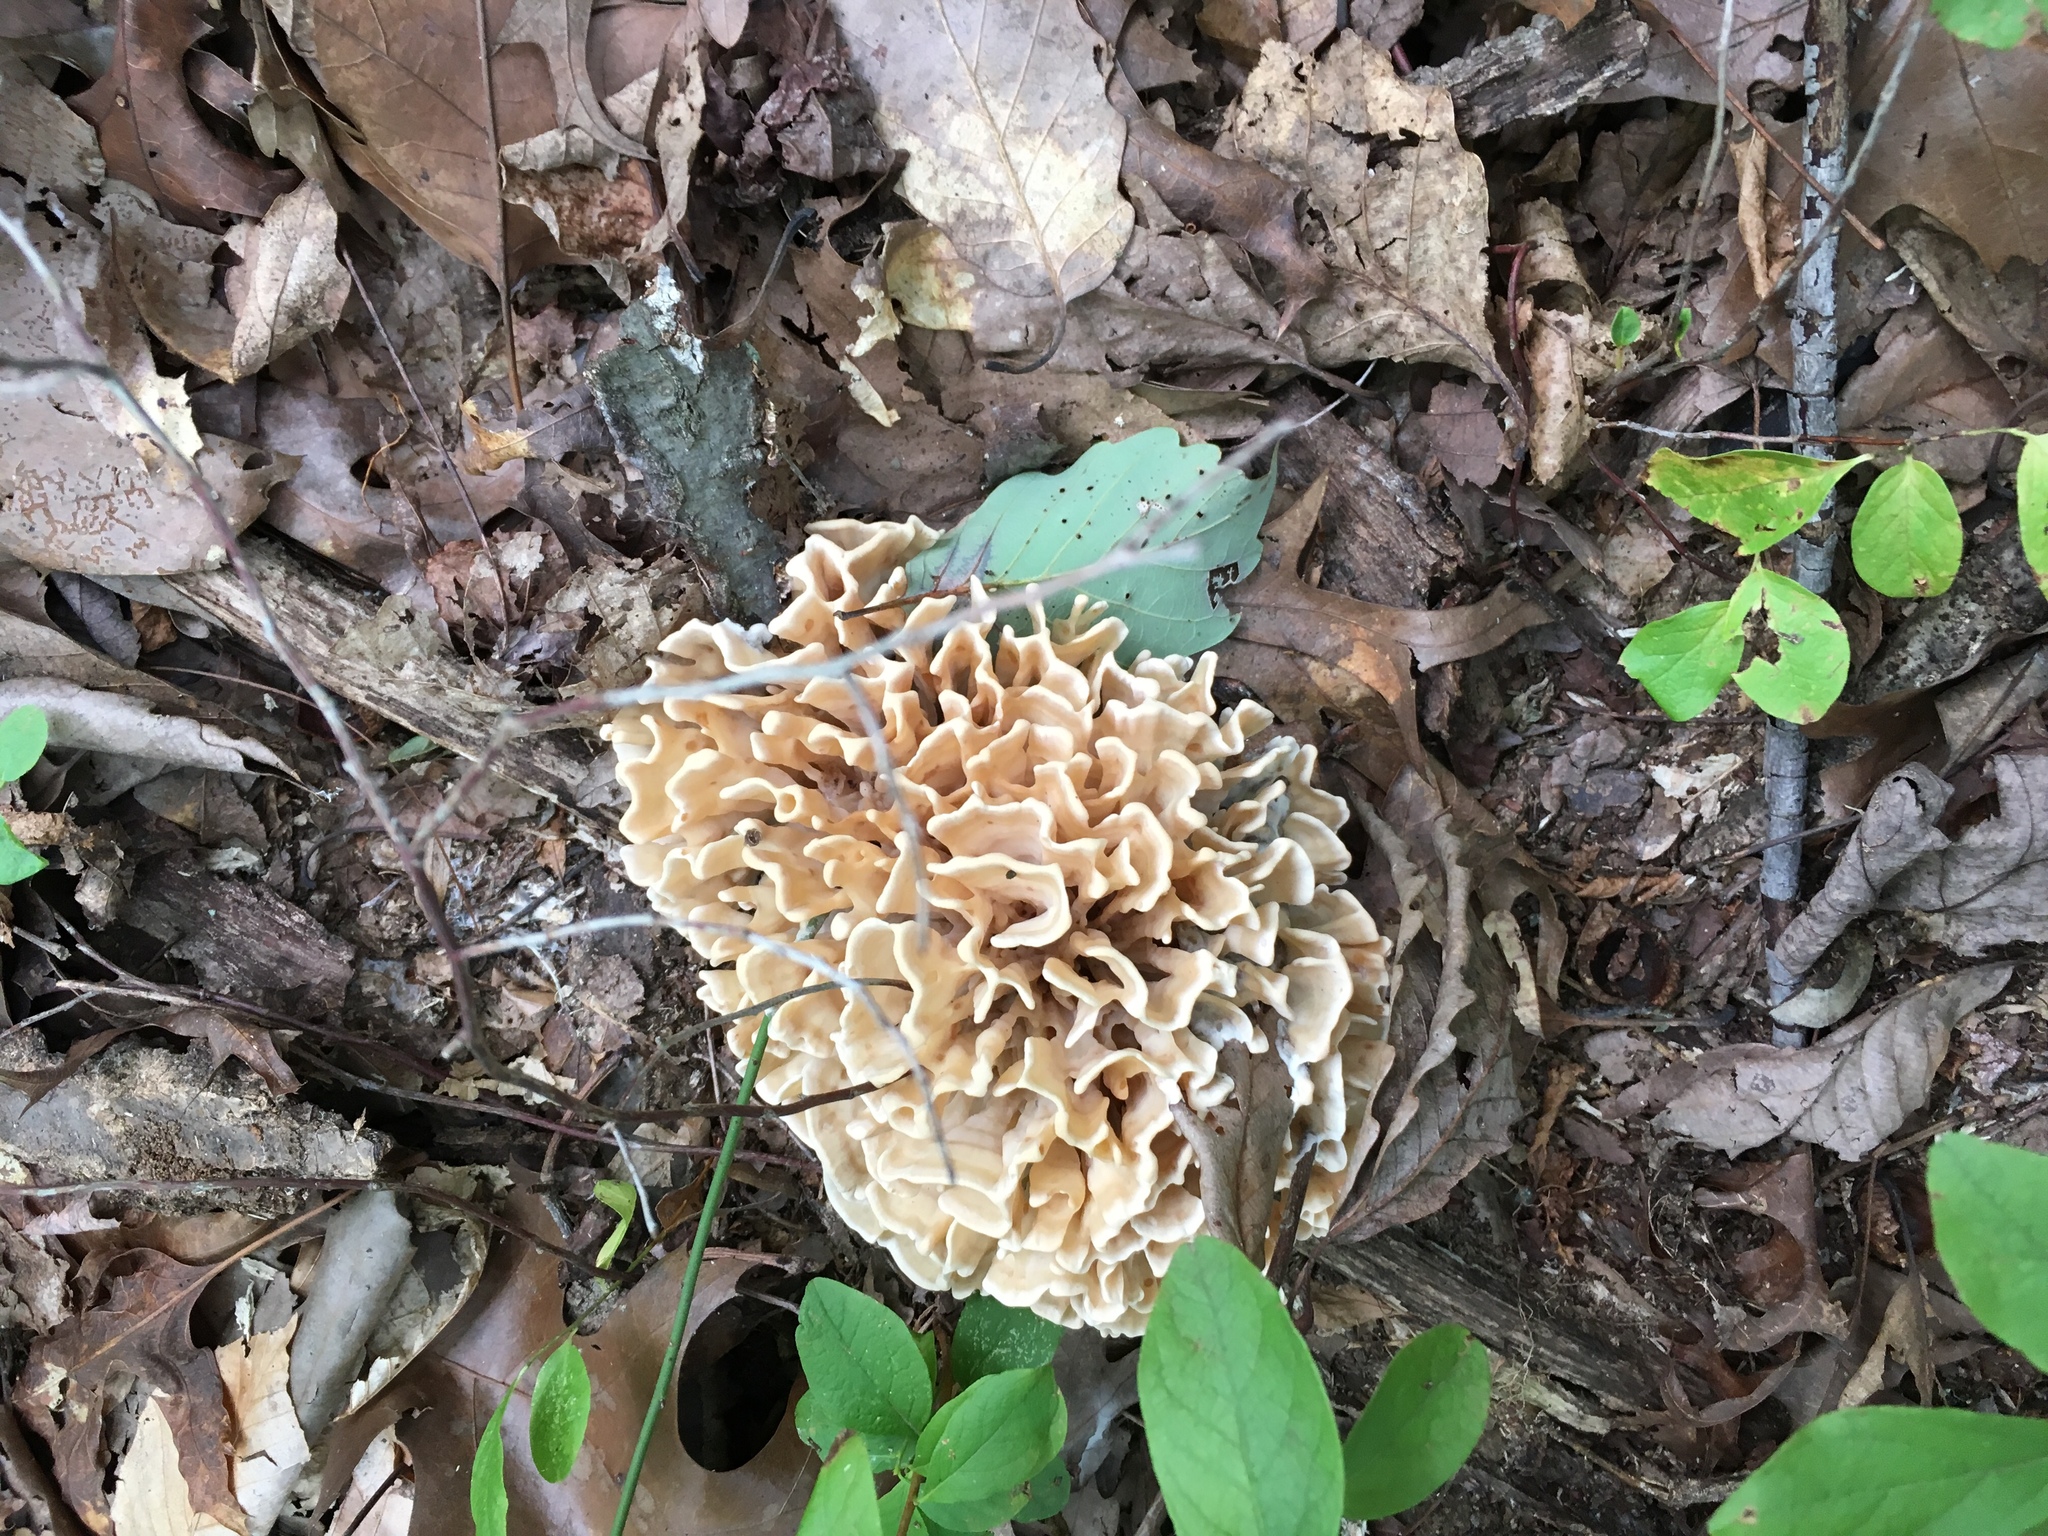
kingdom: Fungi
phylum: Basidiomycota
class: Agaricomycetes
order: Polyporales
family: Sparassidaceae
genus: Sparassis
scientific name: Sparassis spathulata
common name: Eastern cauliflower mushroom
